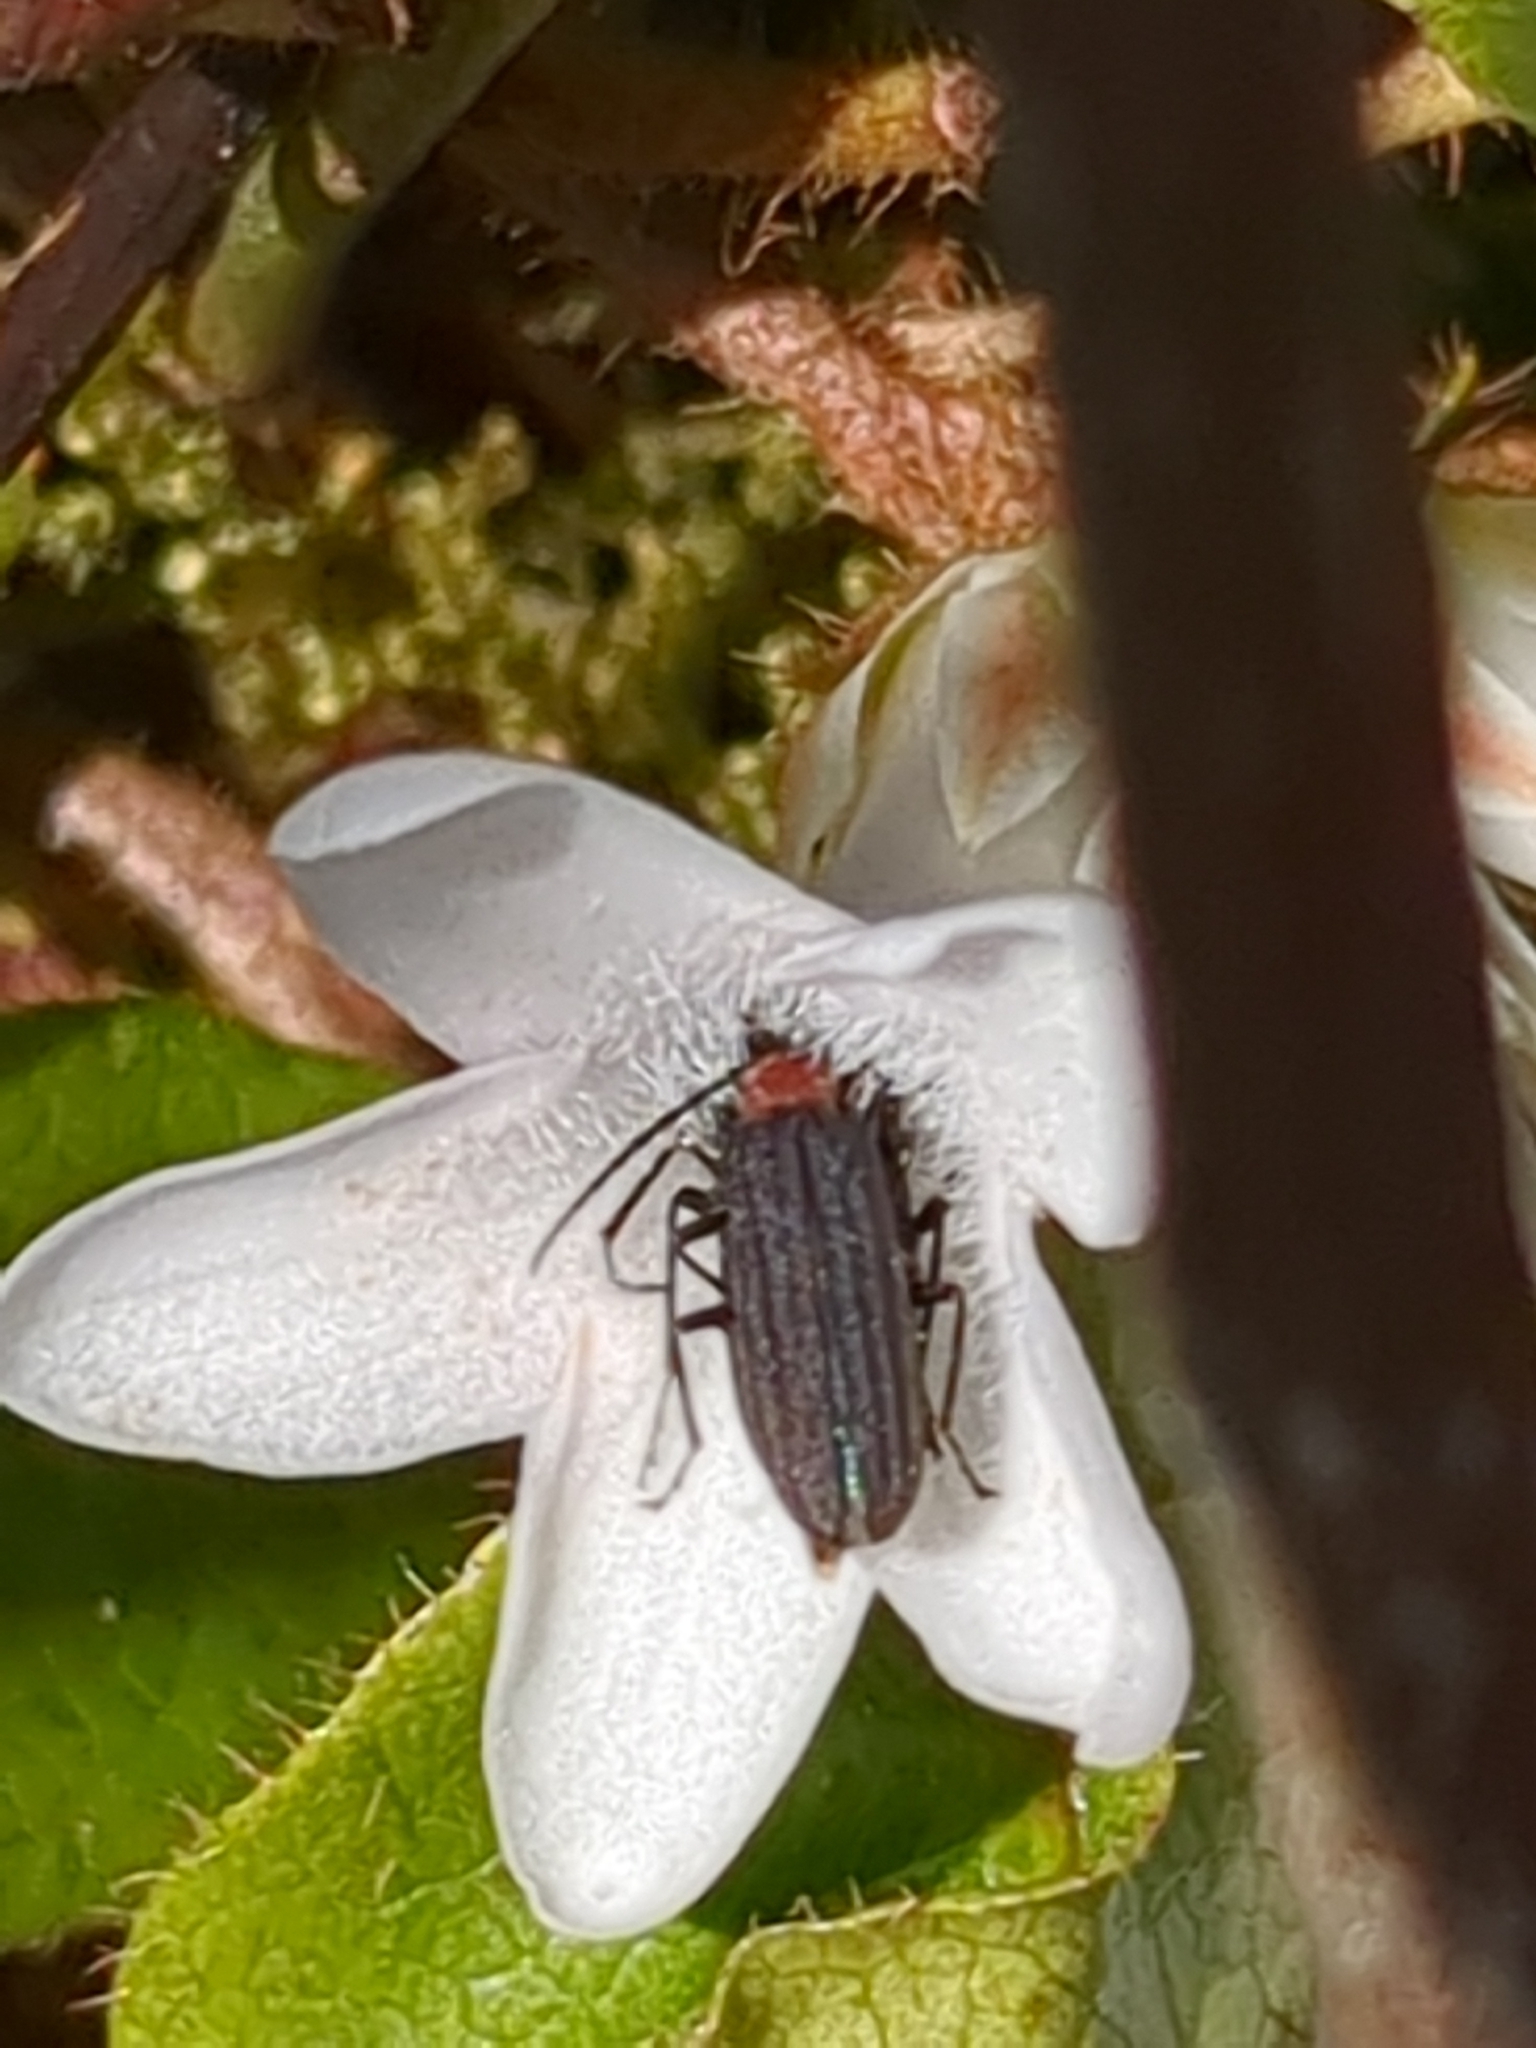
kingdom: Animalia
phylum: Arthropoda
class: Insecta
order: Coleoptera
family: Oedemeridae
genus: Ischnomera
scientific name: Ischnomera
